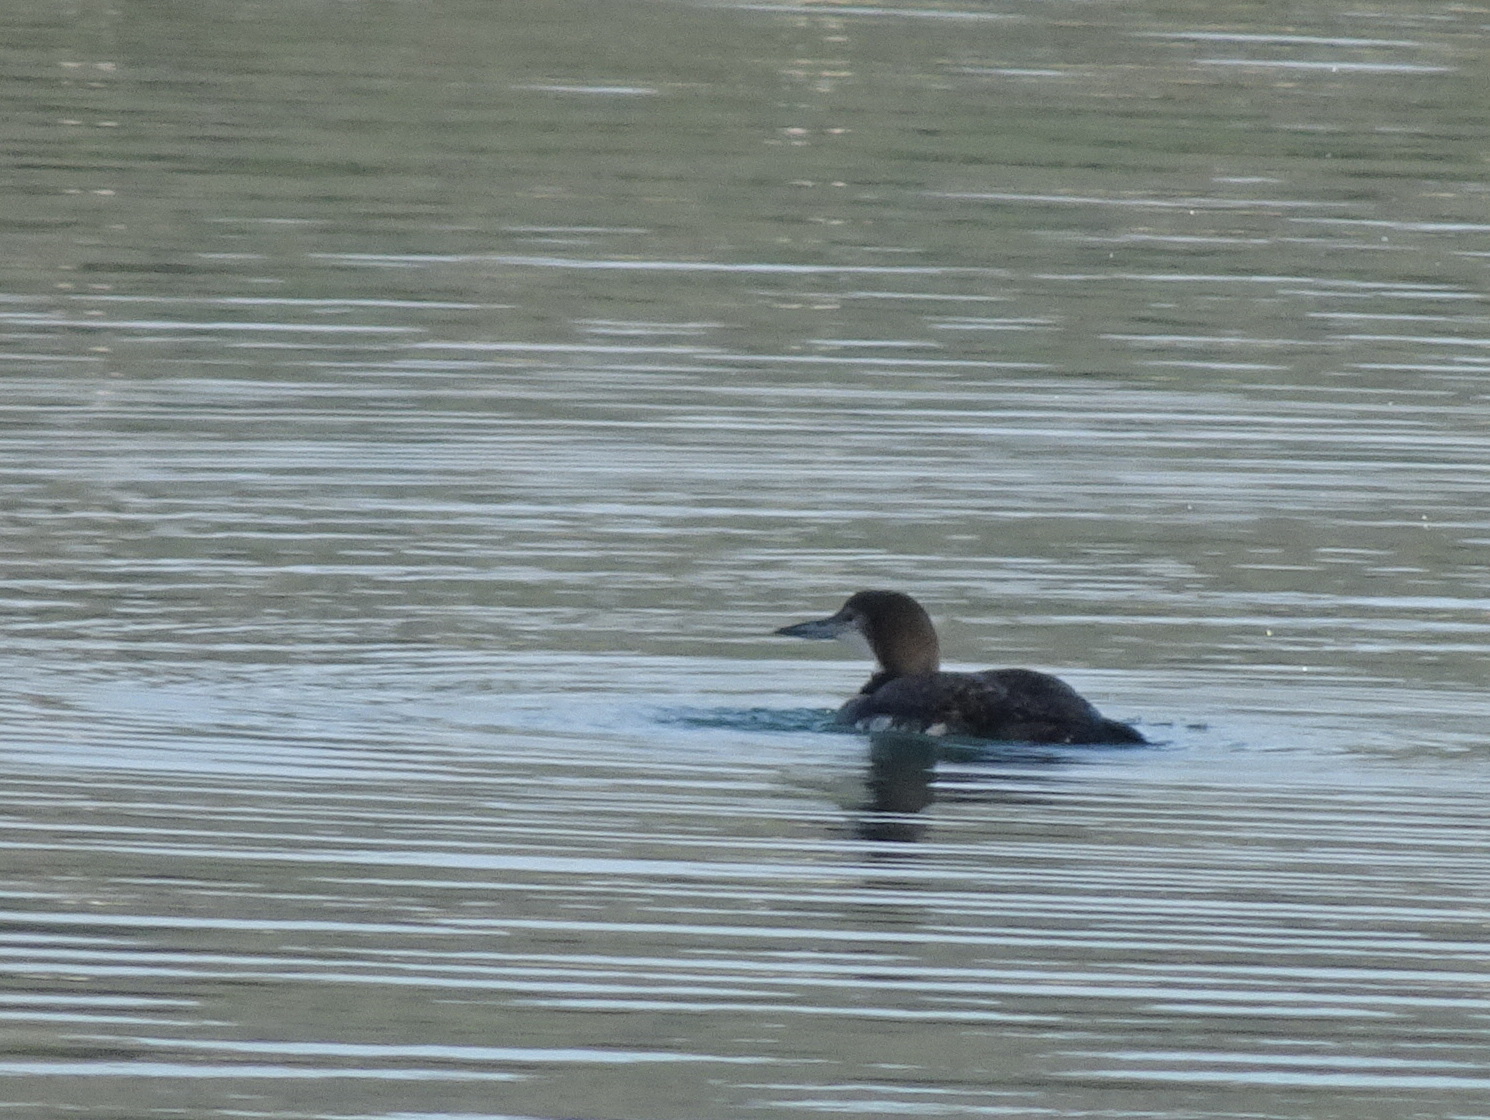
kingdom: Animalia
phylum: Chordata
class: Aves
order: Gaviiformes
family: Gaviidae
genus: Gavia
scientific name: Gavia immer
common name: Common loon
